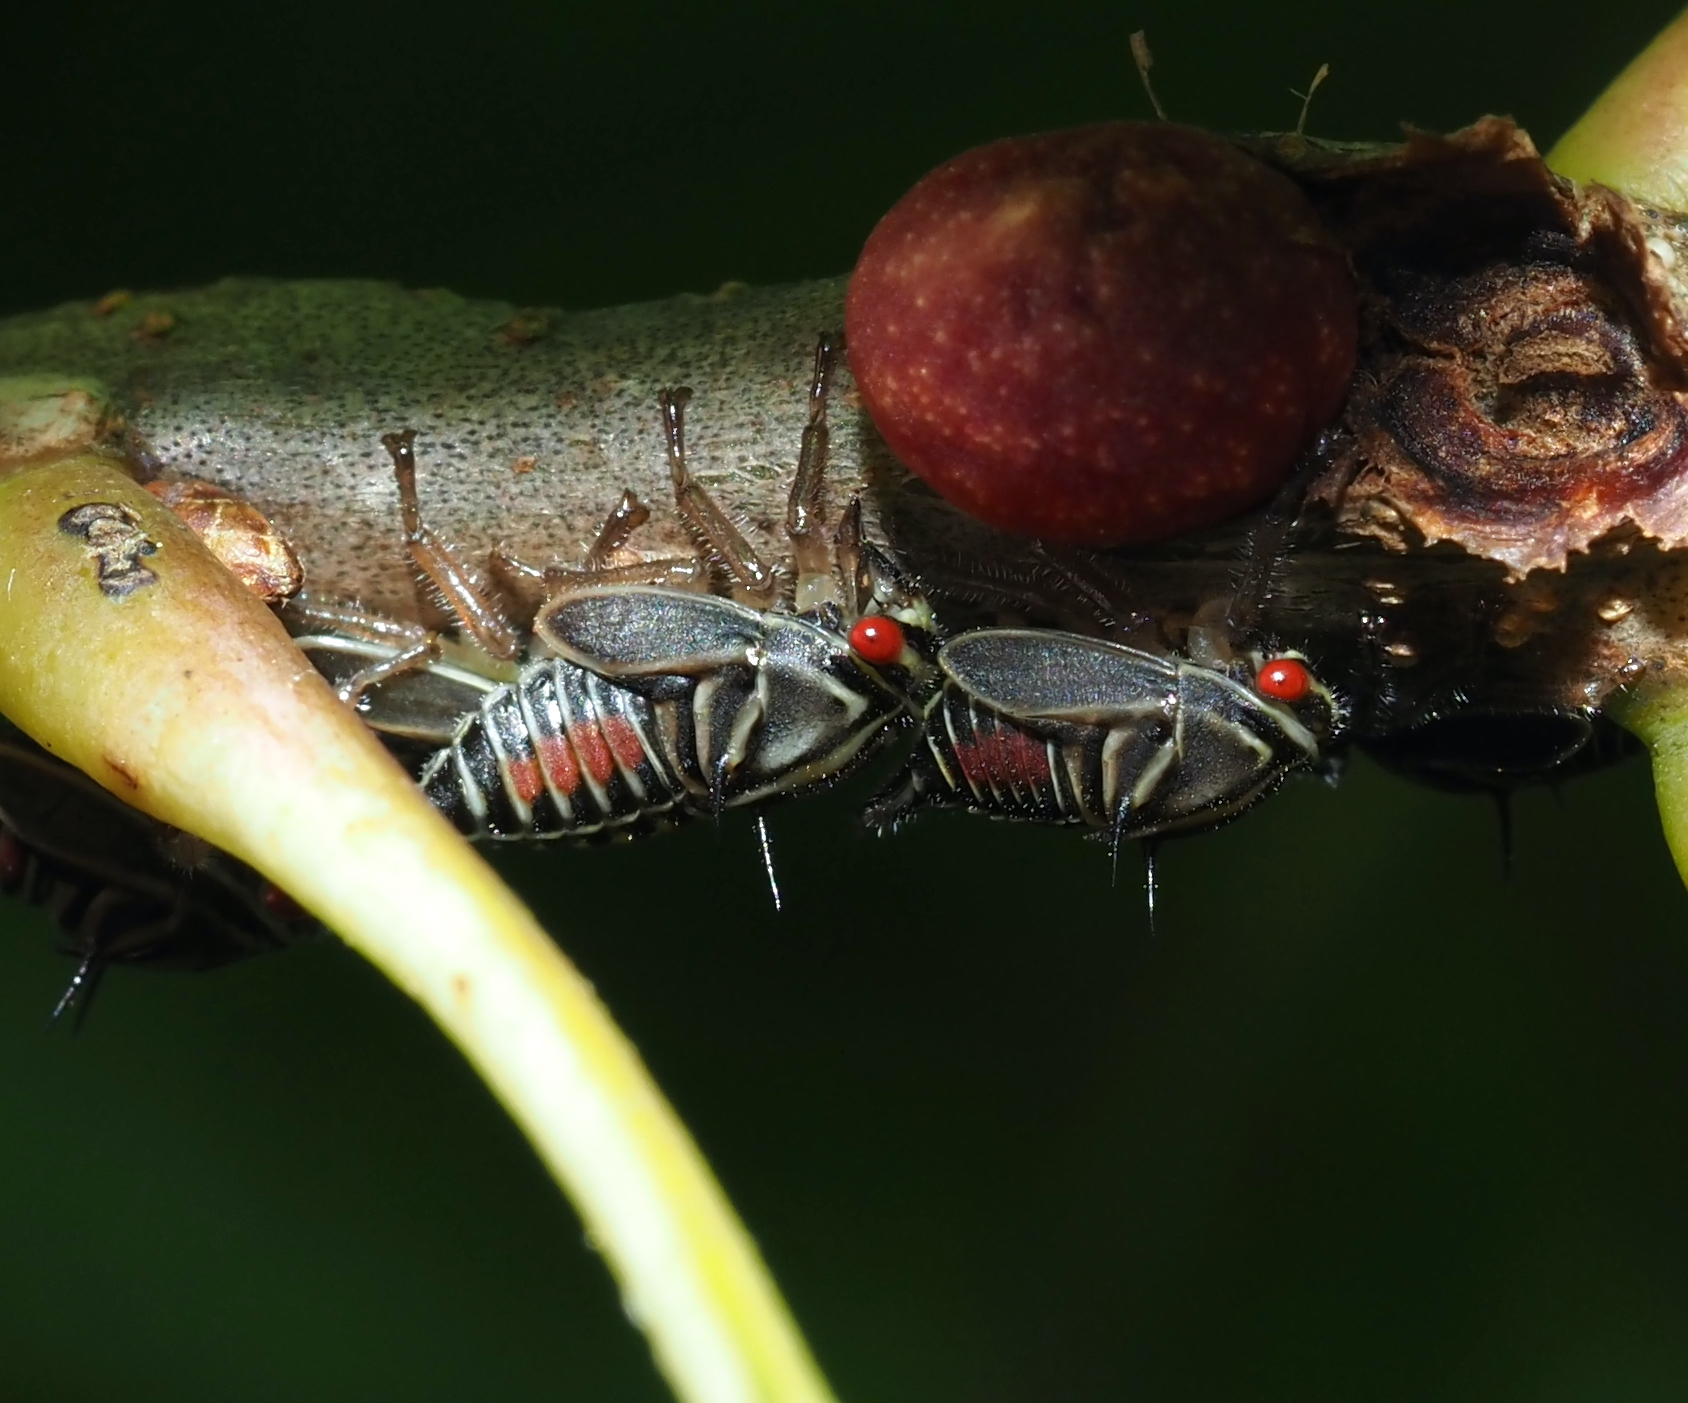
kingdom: Animalia
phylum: Arthropoda
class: Insecta
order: Hemiptera
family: Membracidae
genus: Platycotis
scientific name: Platycotis vittatus
